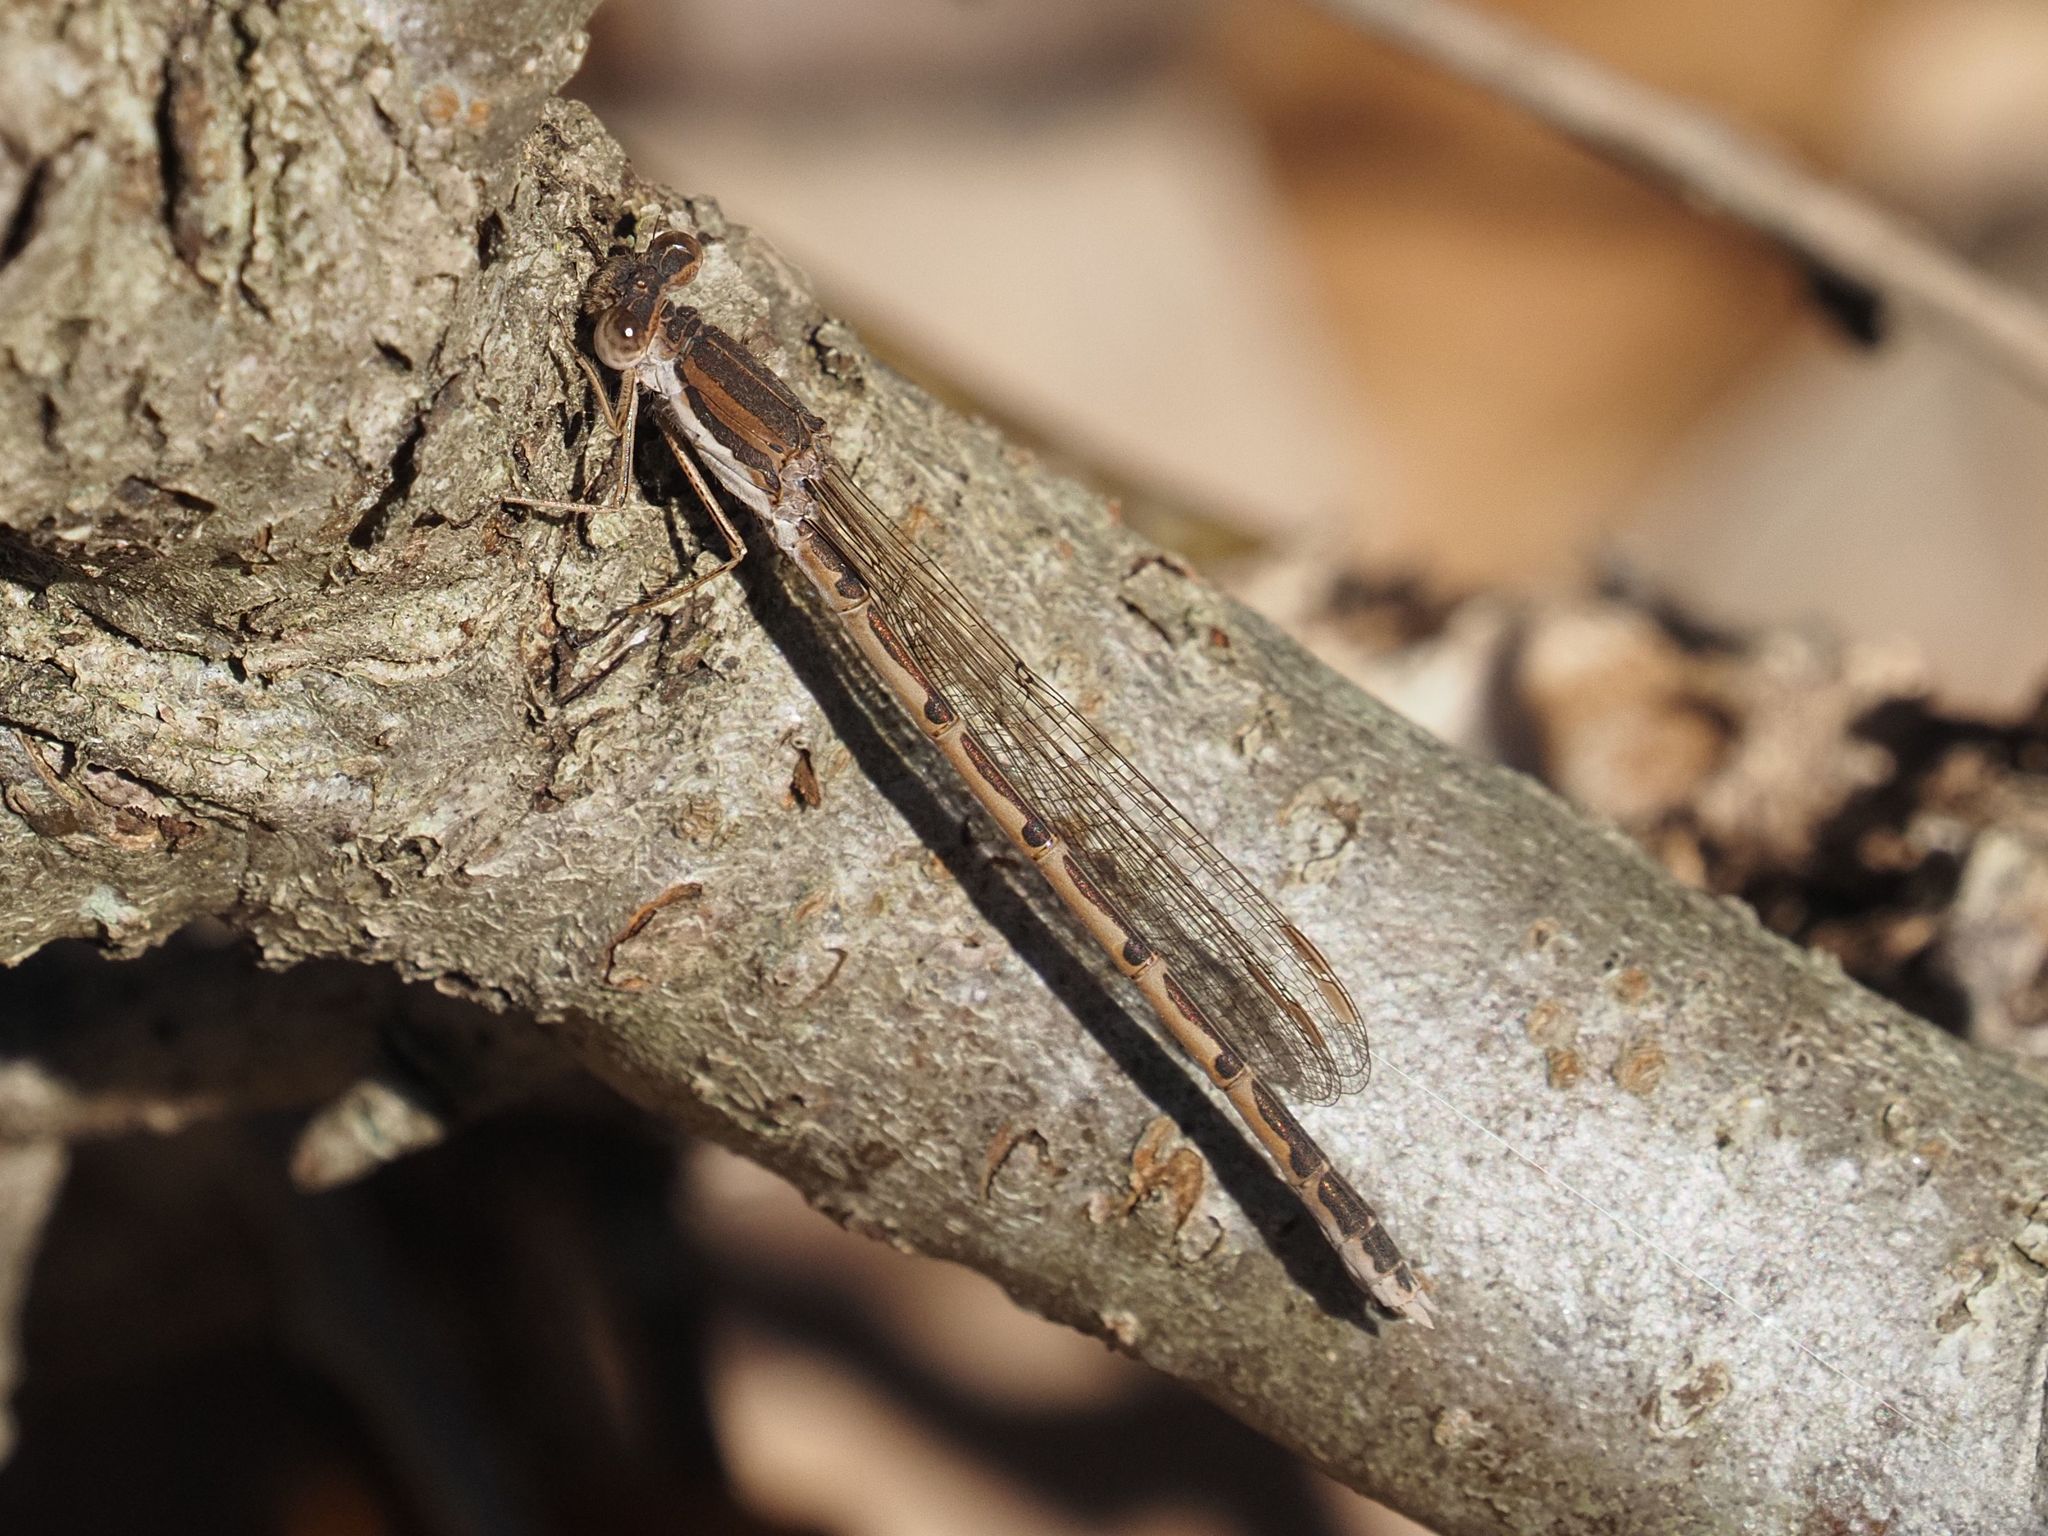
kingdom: Animalia
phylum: Arthropoda
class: Insecta
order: Odonata
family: Lestidae
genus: Sympecma
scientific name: Sympecma fusca
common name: Common winter damsel
